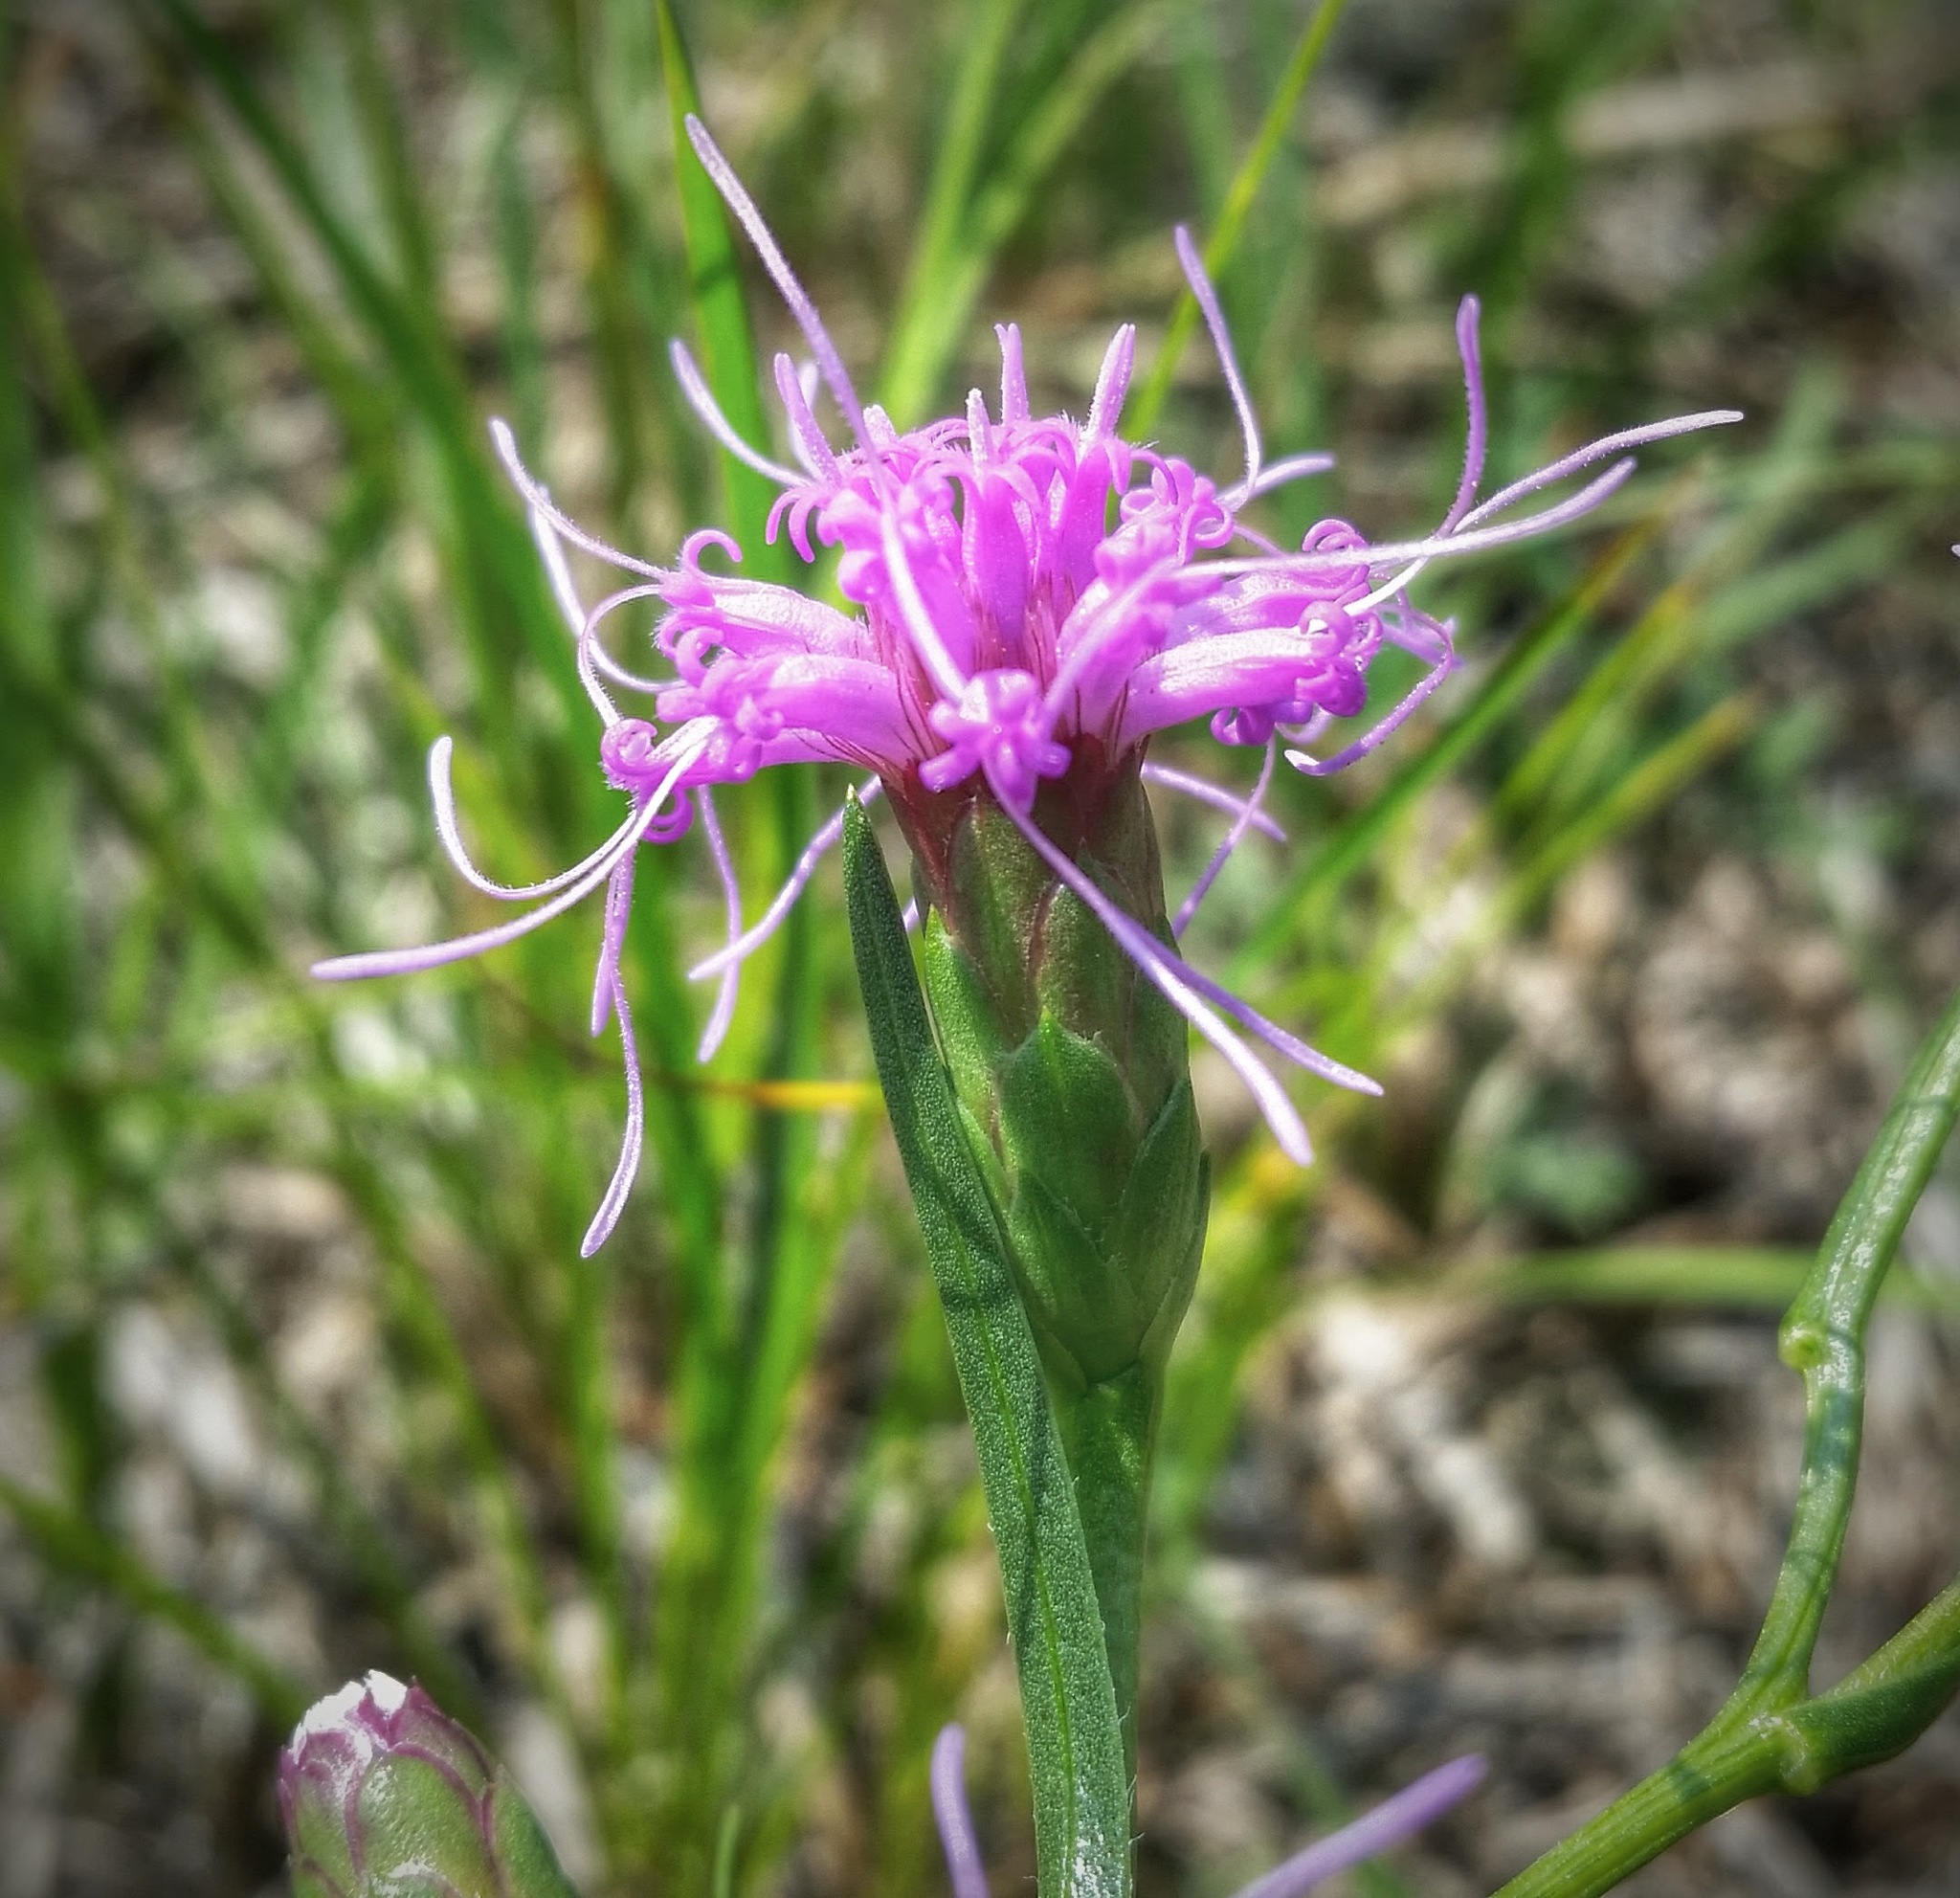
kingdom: Plantae
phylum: Tracheophyta
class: Magnoliopsida
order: Asterales
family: Asteraceae
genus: Liatris
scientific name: Liatris cylindracea
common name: Few-head blazingstar
